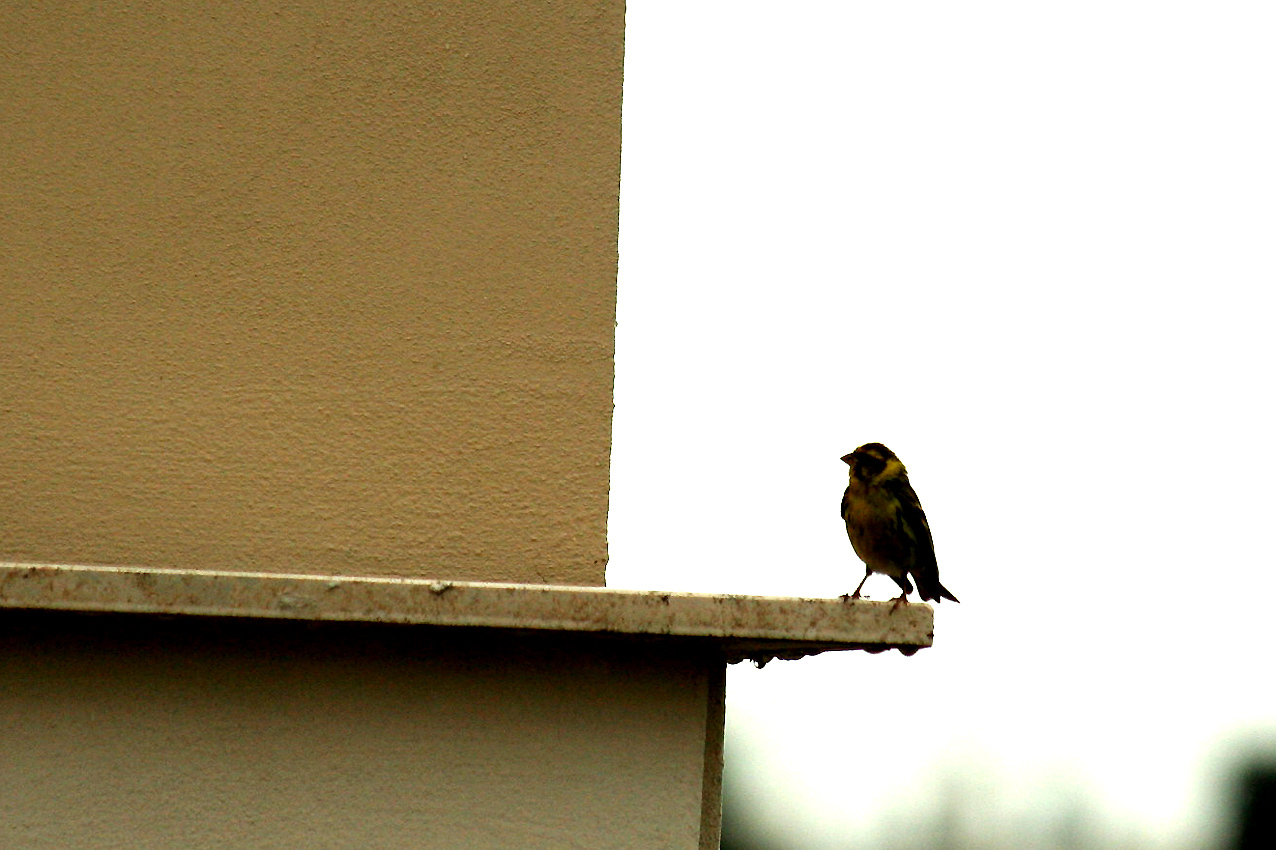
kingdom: Animalia
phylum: Chordata
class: Aves
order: Passeriformes
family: Fringillidae
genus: Serinus
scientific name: Serinus serinus
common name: European serin
